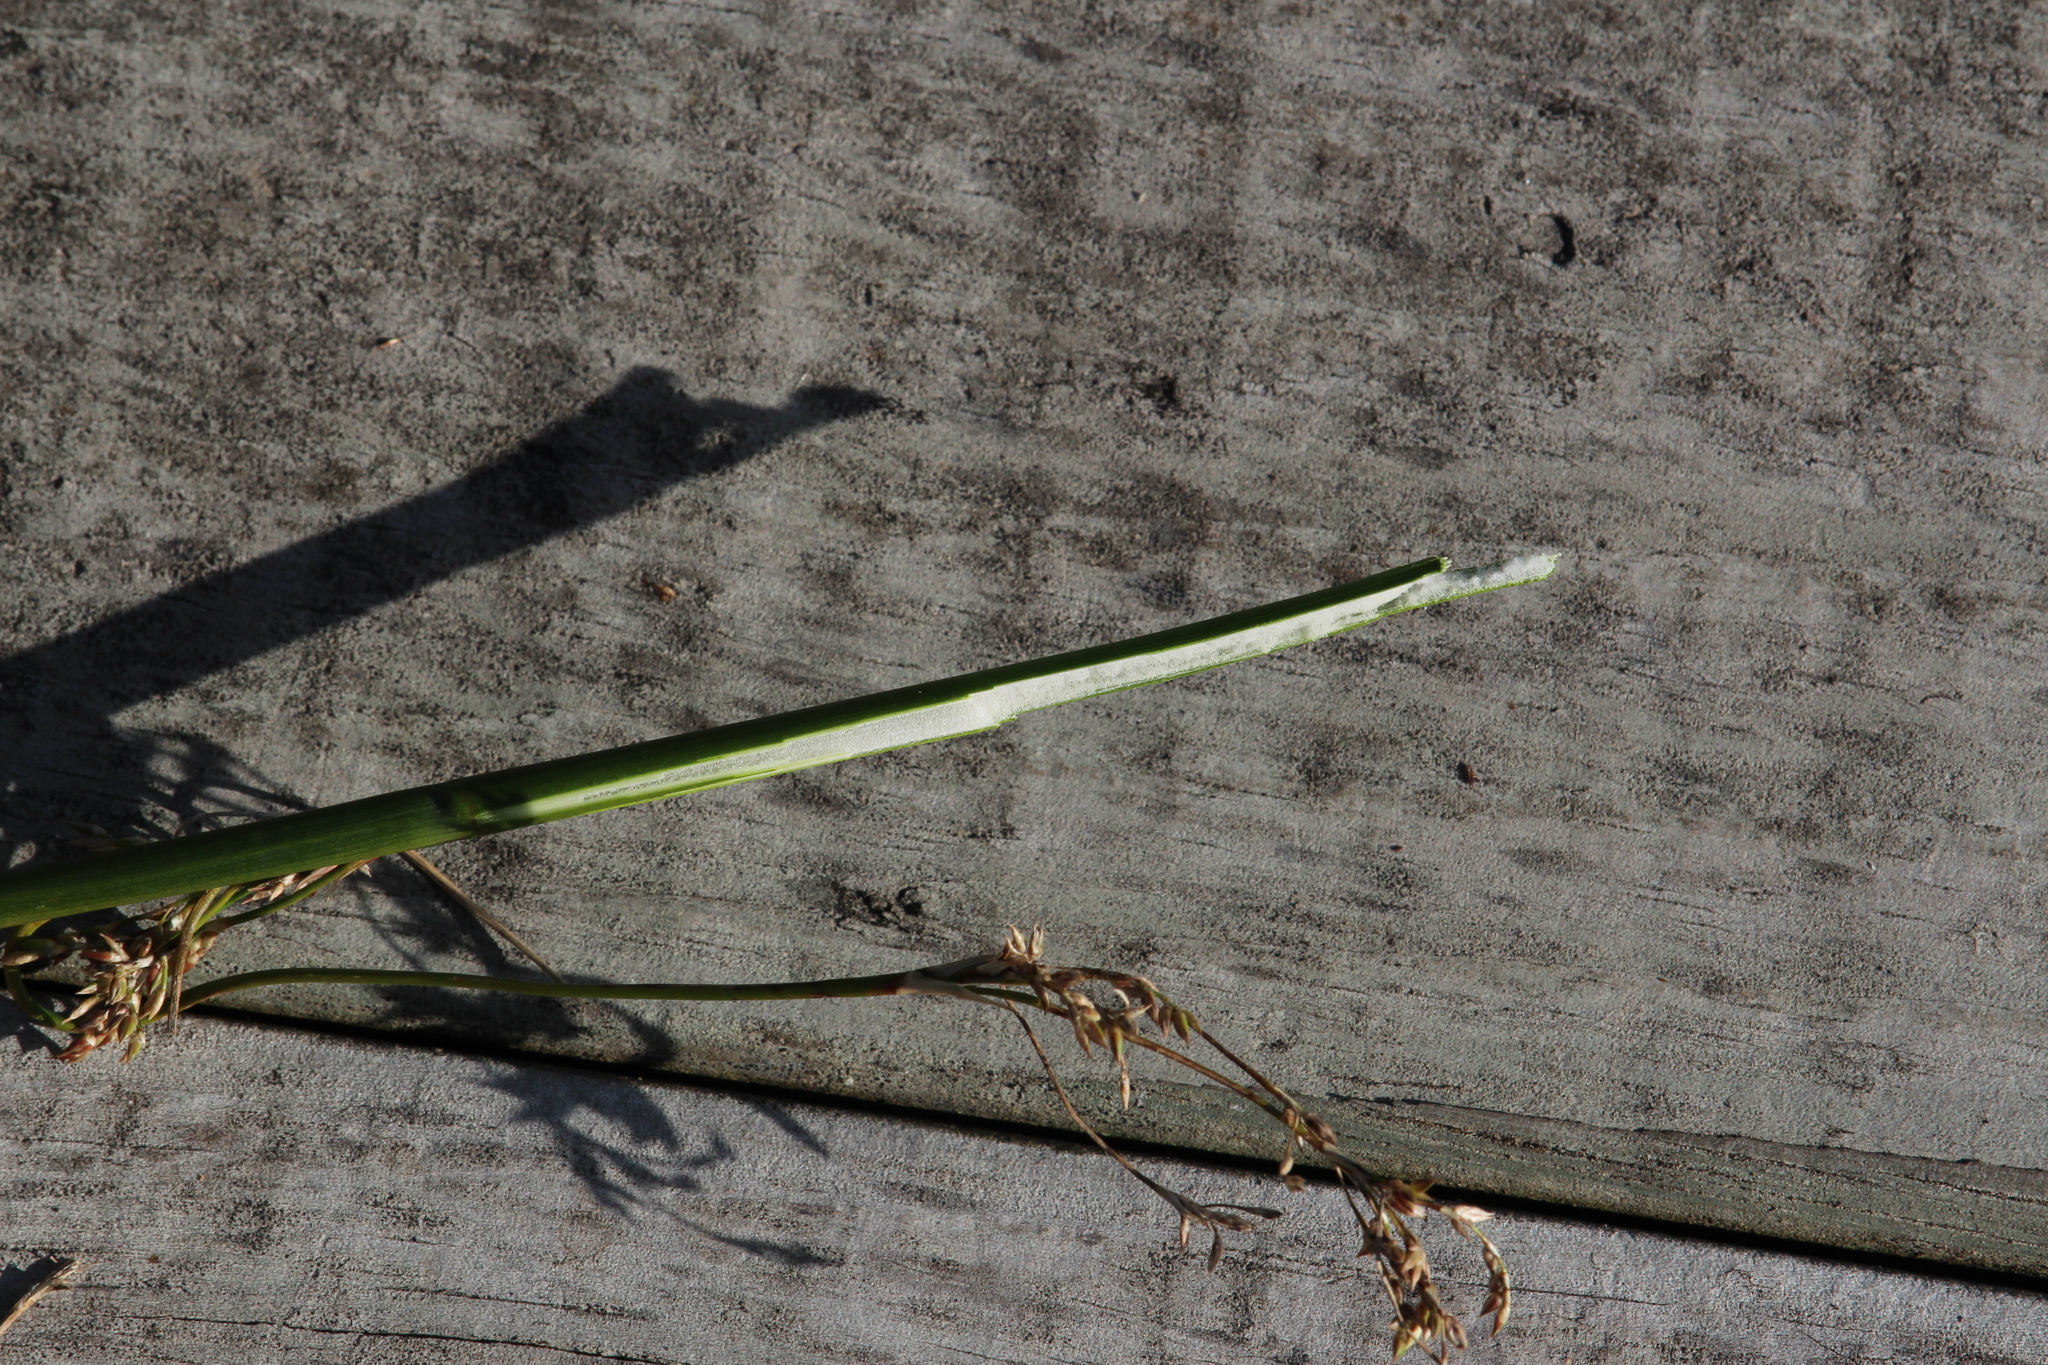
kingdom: Plantae
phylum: Tracheophyta
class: Liliopsida
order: Poales
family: Juncaceae
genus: Juncus
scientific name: Juncus pallidus
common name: Great soft-rush
